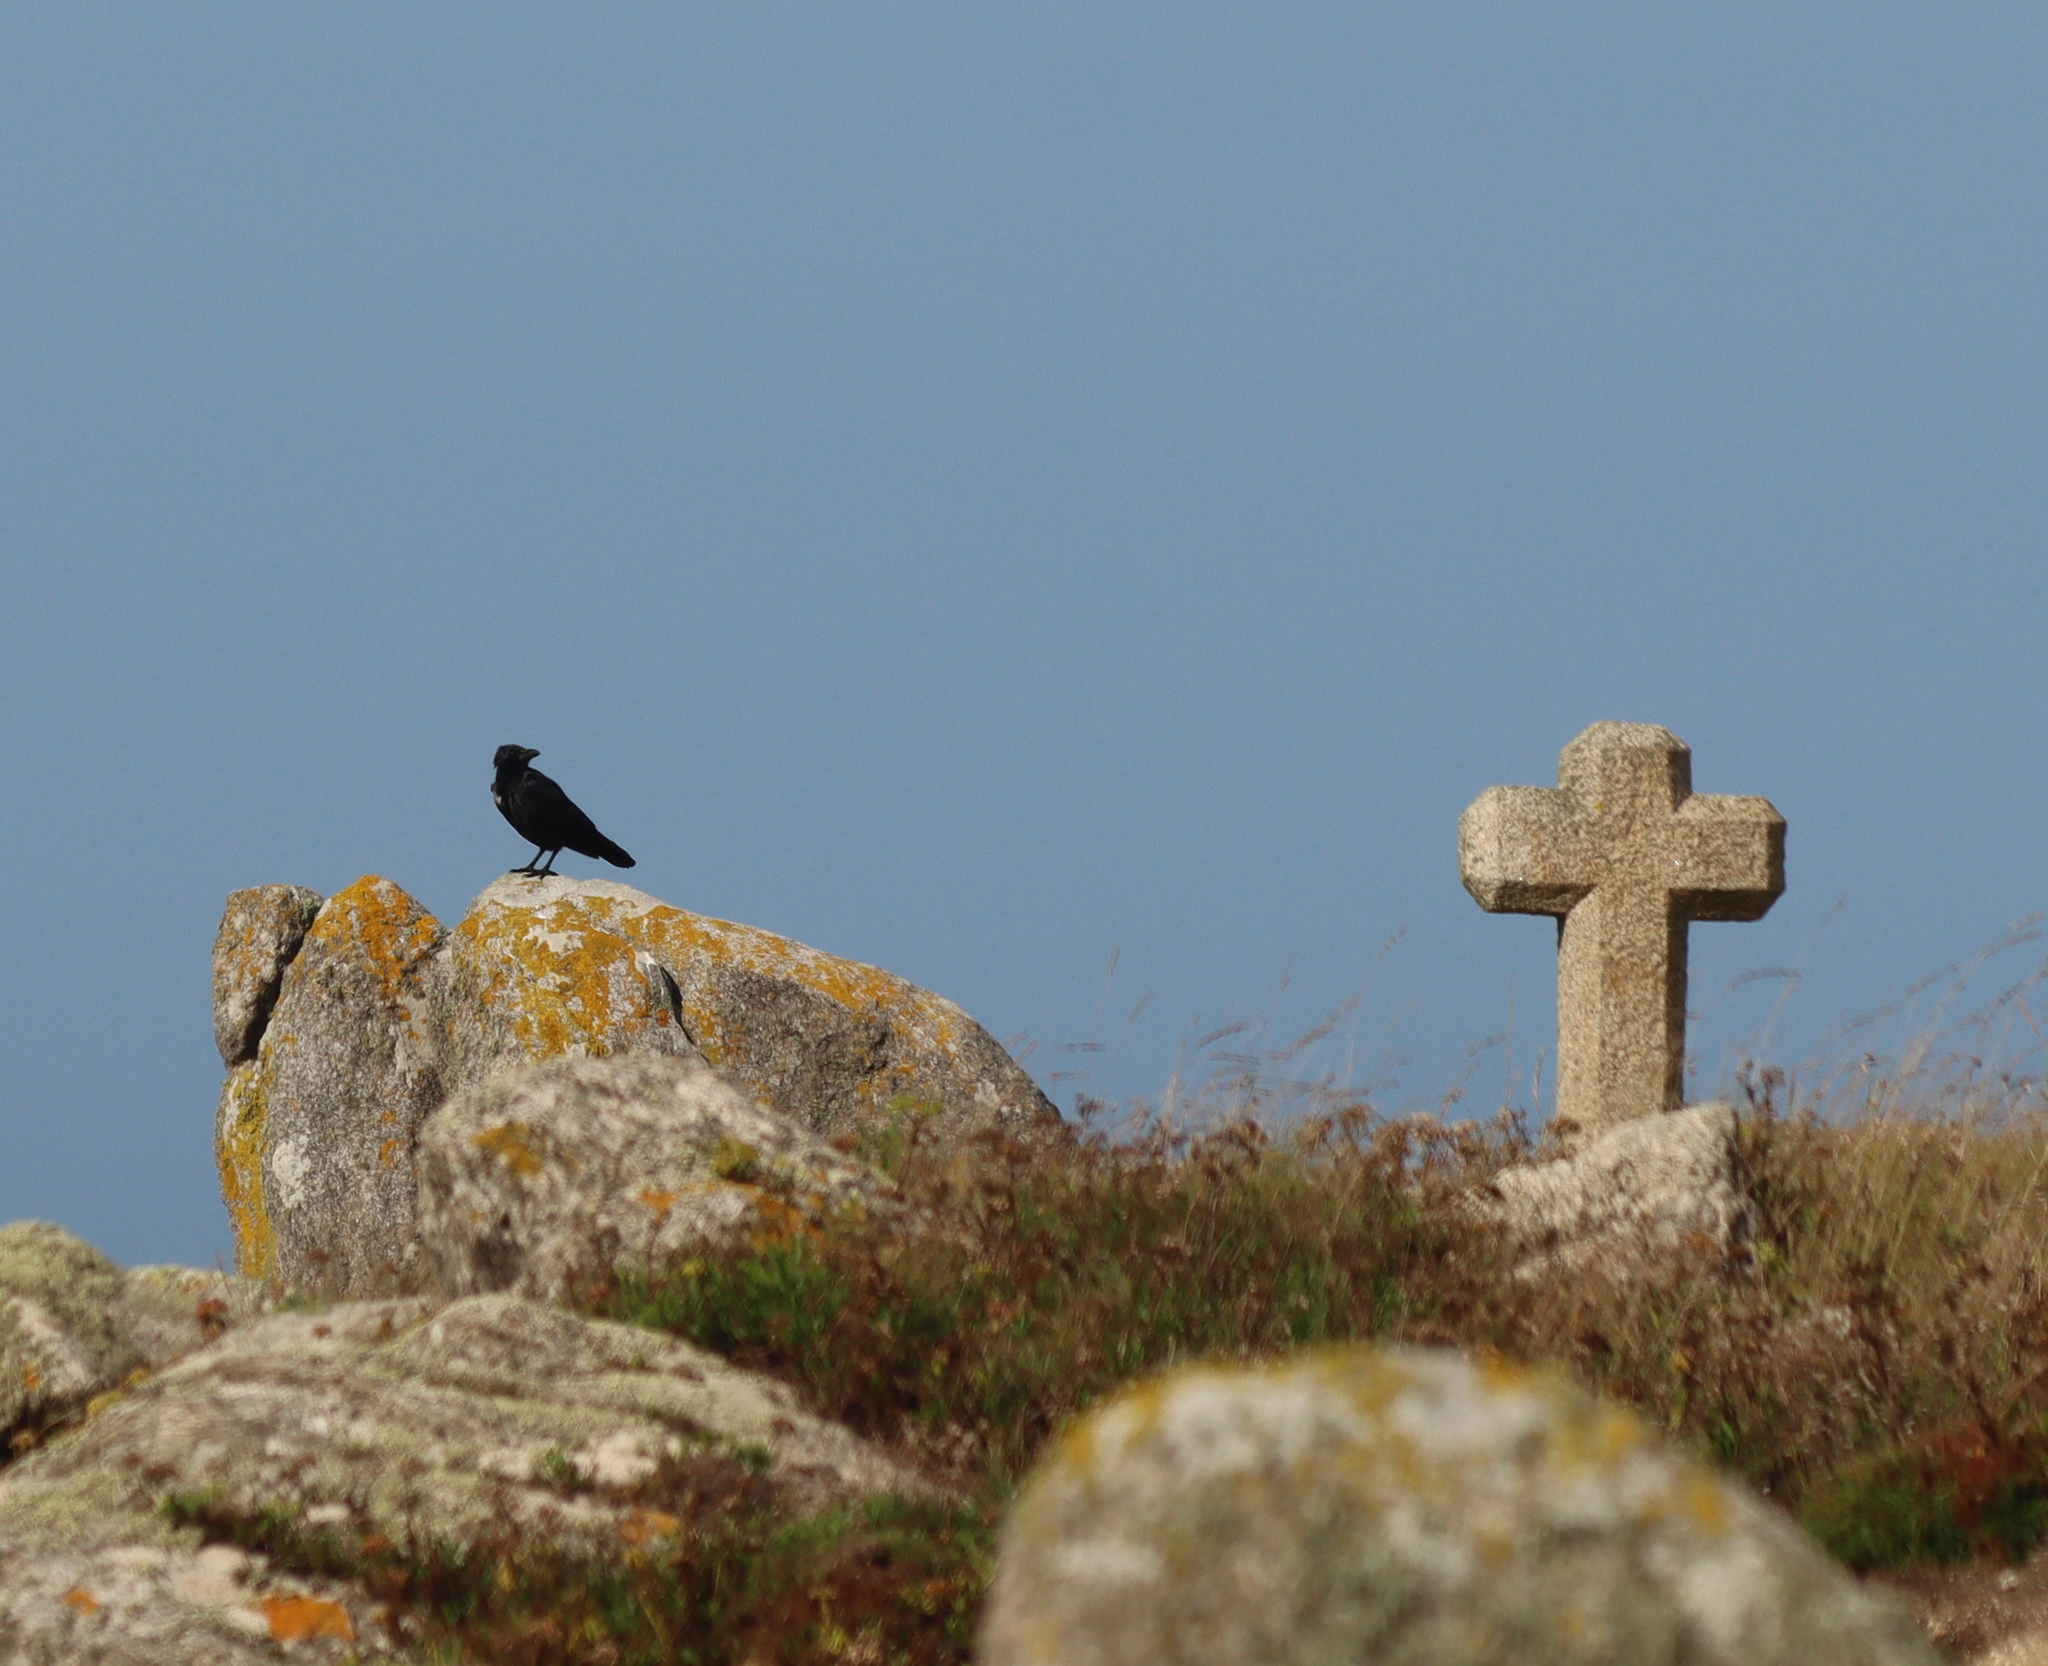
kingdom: Animalia
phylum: Chordata
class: Aves
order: Passeriformes
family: Corvidae
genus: Corvus
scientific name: Corvus corone
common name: Carrion crow
